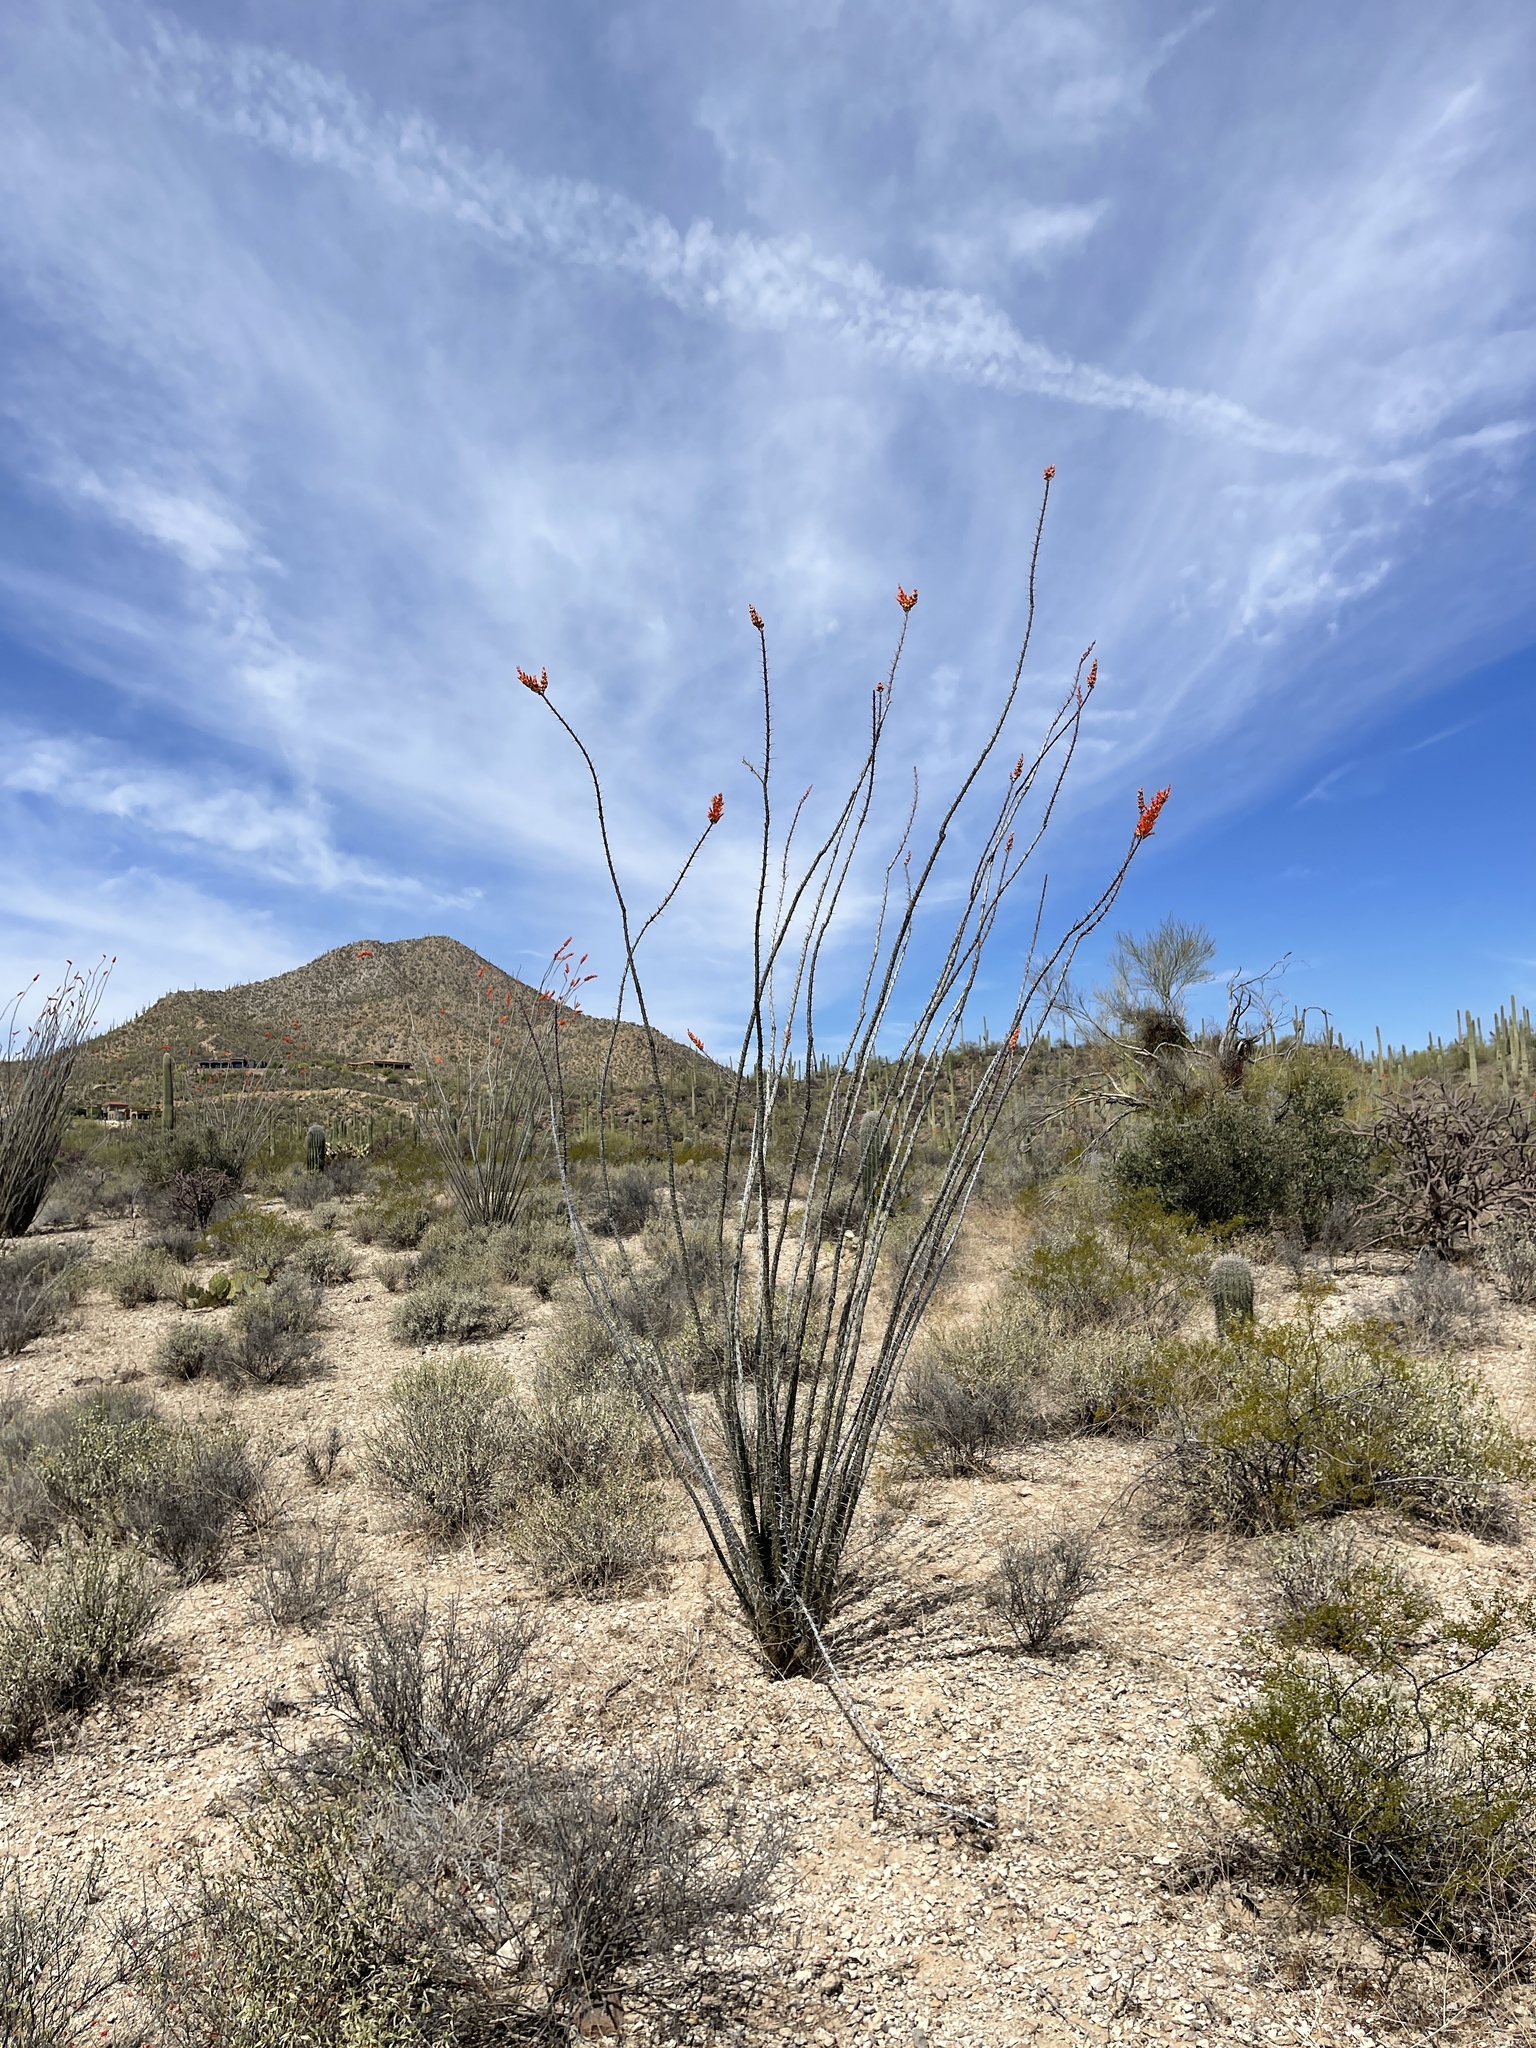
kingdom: Plantae
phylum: Tracheophyta
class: Magnoliopsida
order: Ericales
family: Fouquieriaceae
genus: Fouquieria
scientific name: Fouquieria splendens
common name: Vine-cactus
